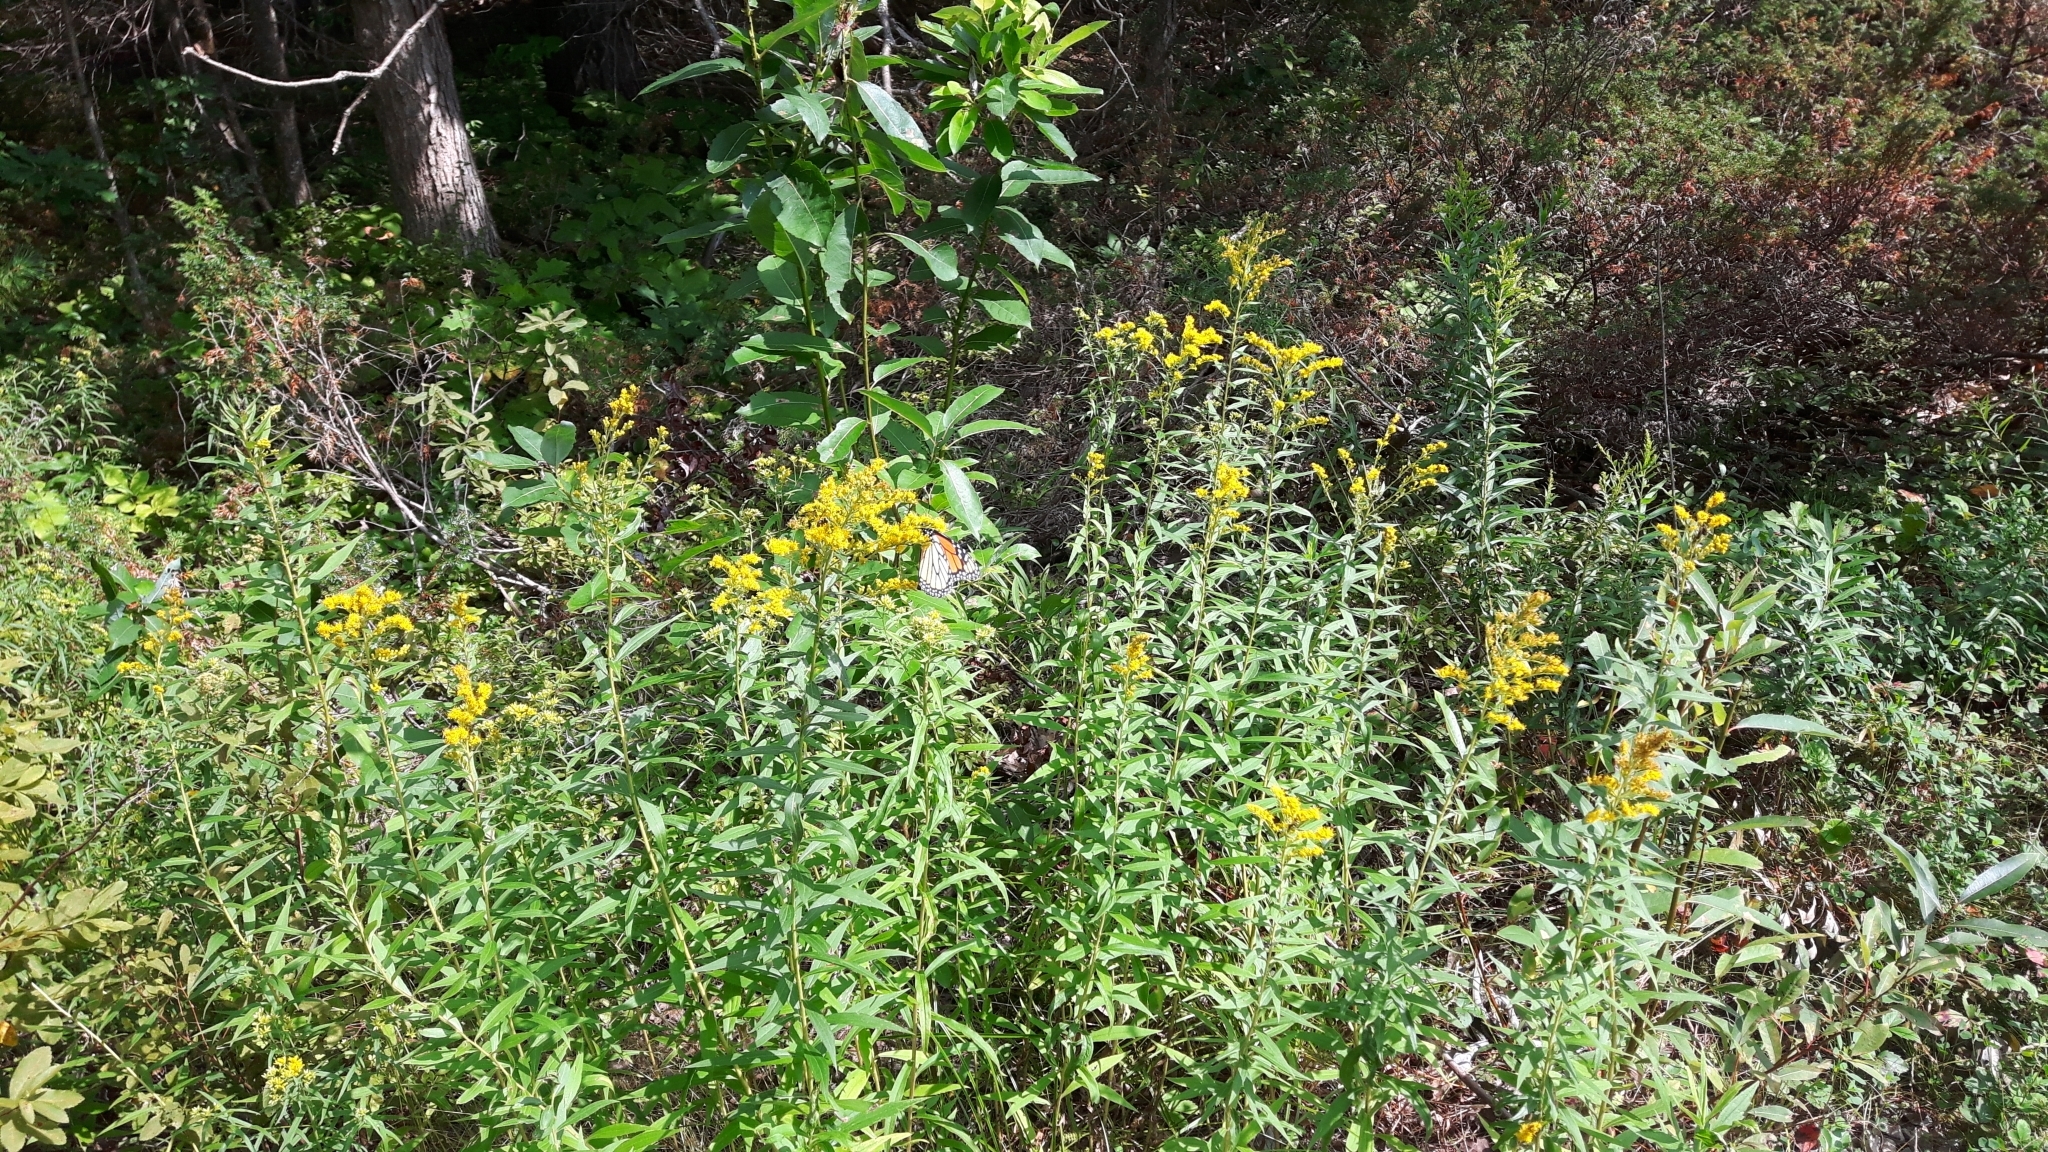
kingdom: Animalia
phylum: Arthropoda
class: Insecta
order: Lepidoptera
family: Nymphalidae
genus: Danaus
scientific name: Danaus plexippus
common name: Monarch
